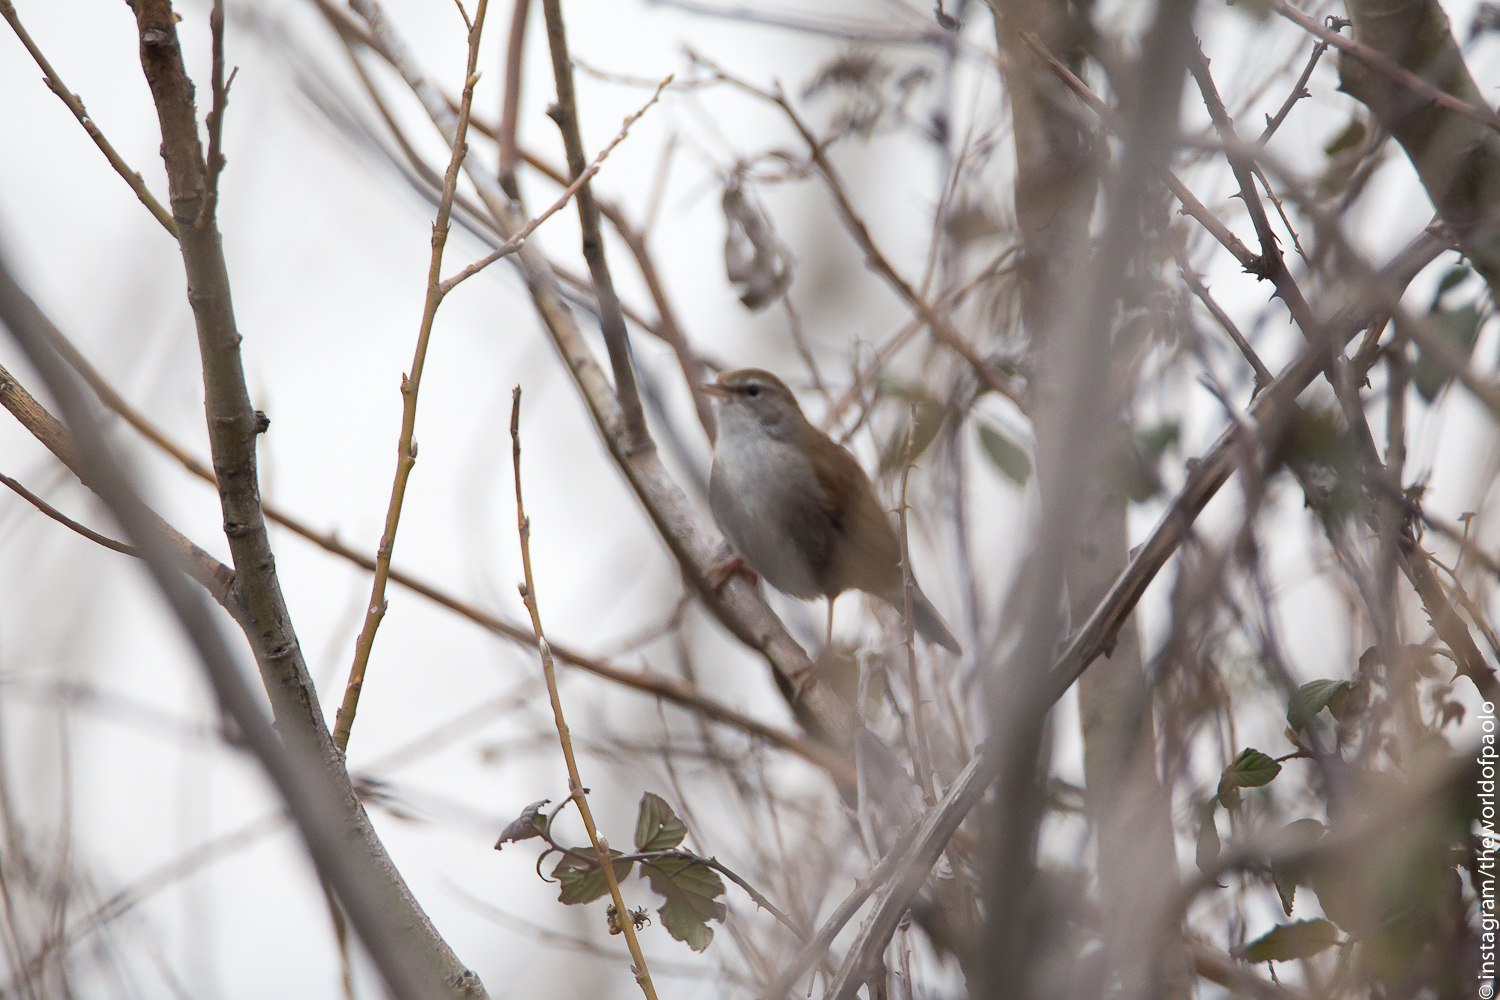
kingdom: Animalia
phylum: Chordata
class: Aves
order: Passeriformes
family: Cettiidae
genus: Cettia
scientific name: Cettia cetti
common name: Cetti's warbler
